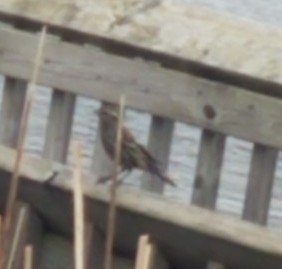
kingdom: Animalia
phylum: Chordata
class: Aves
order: Passeriformes
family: Icteridae
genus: Agelaius
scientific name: Agelaius phoeniceus
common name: Red-winged blackbird
